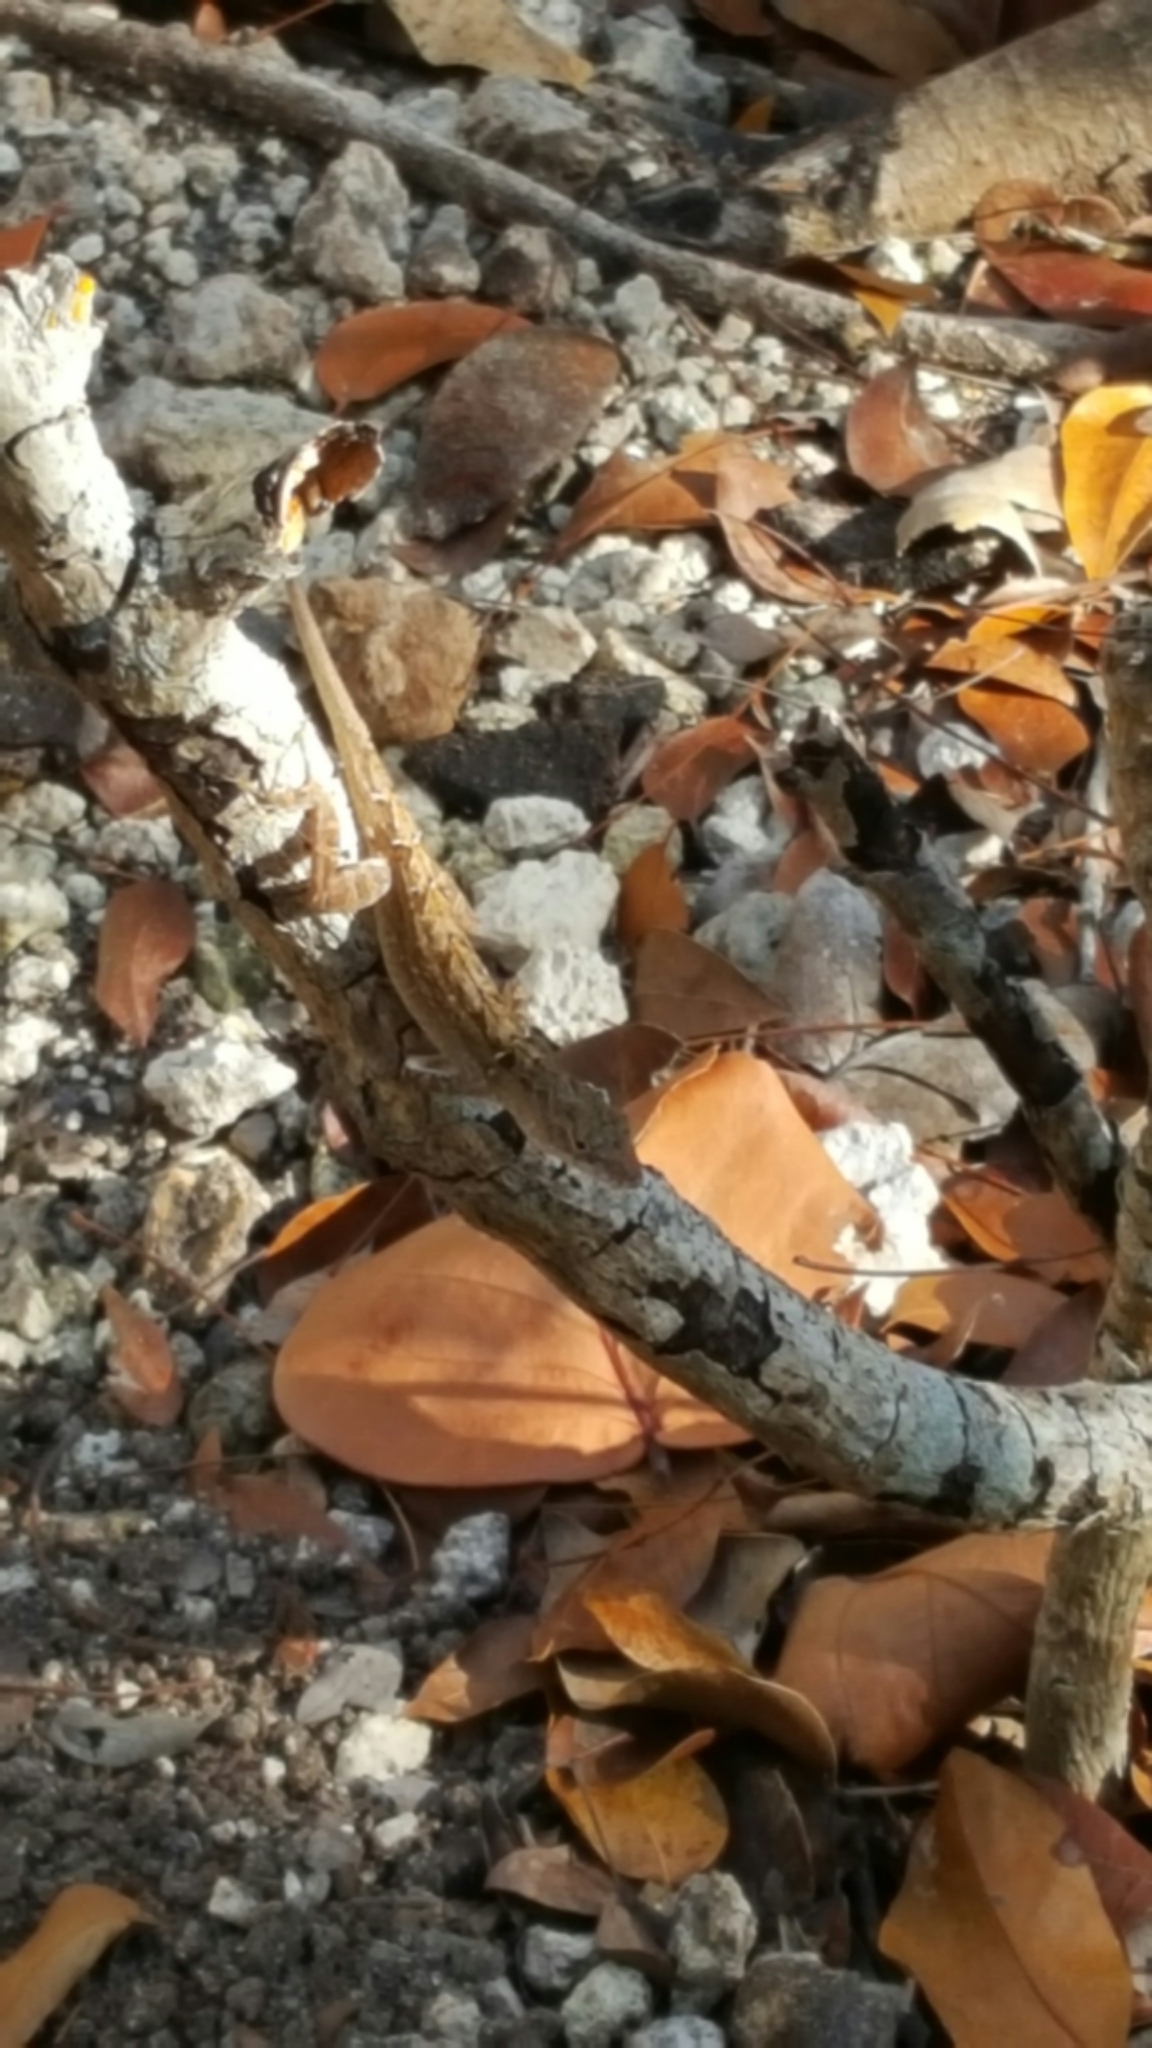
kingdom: Animalia
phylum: Chordata
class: Squamata
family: Dactyloidae
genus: Anolis
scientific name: Anolis sagrei
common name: Brown anole
